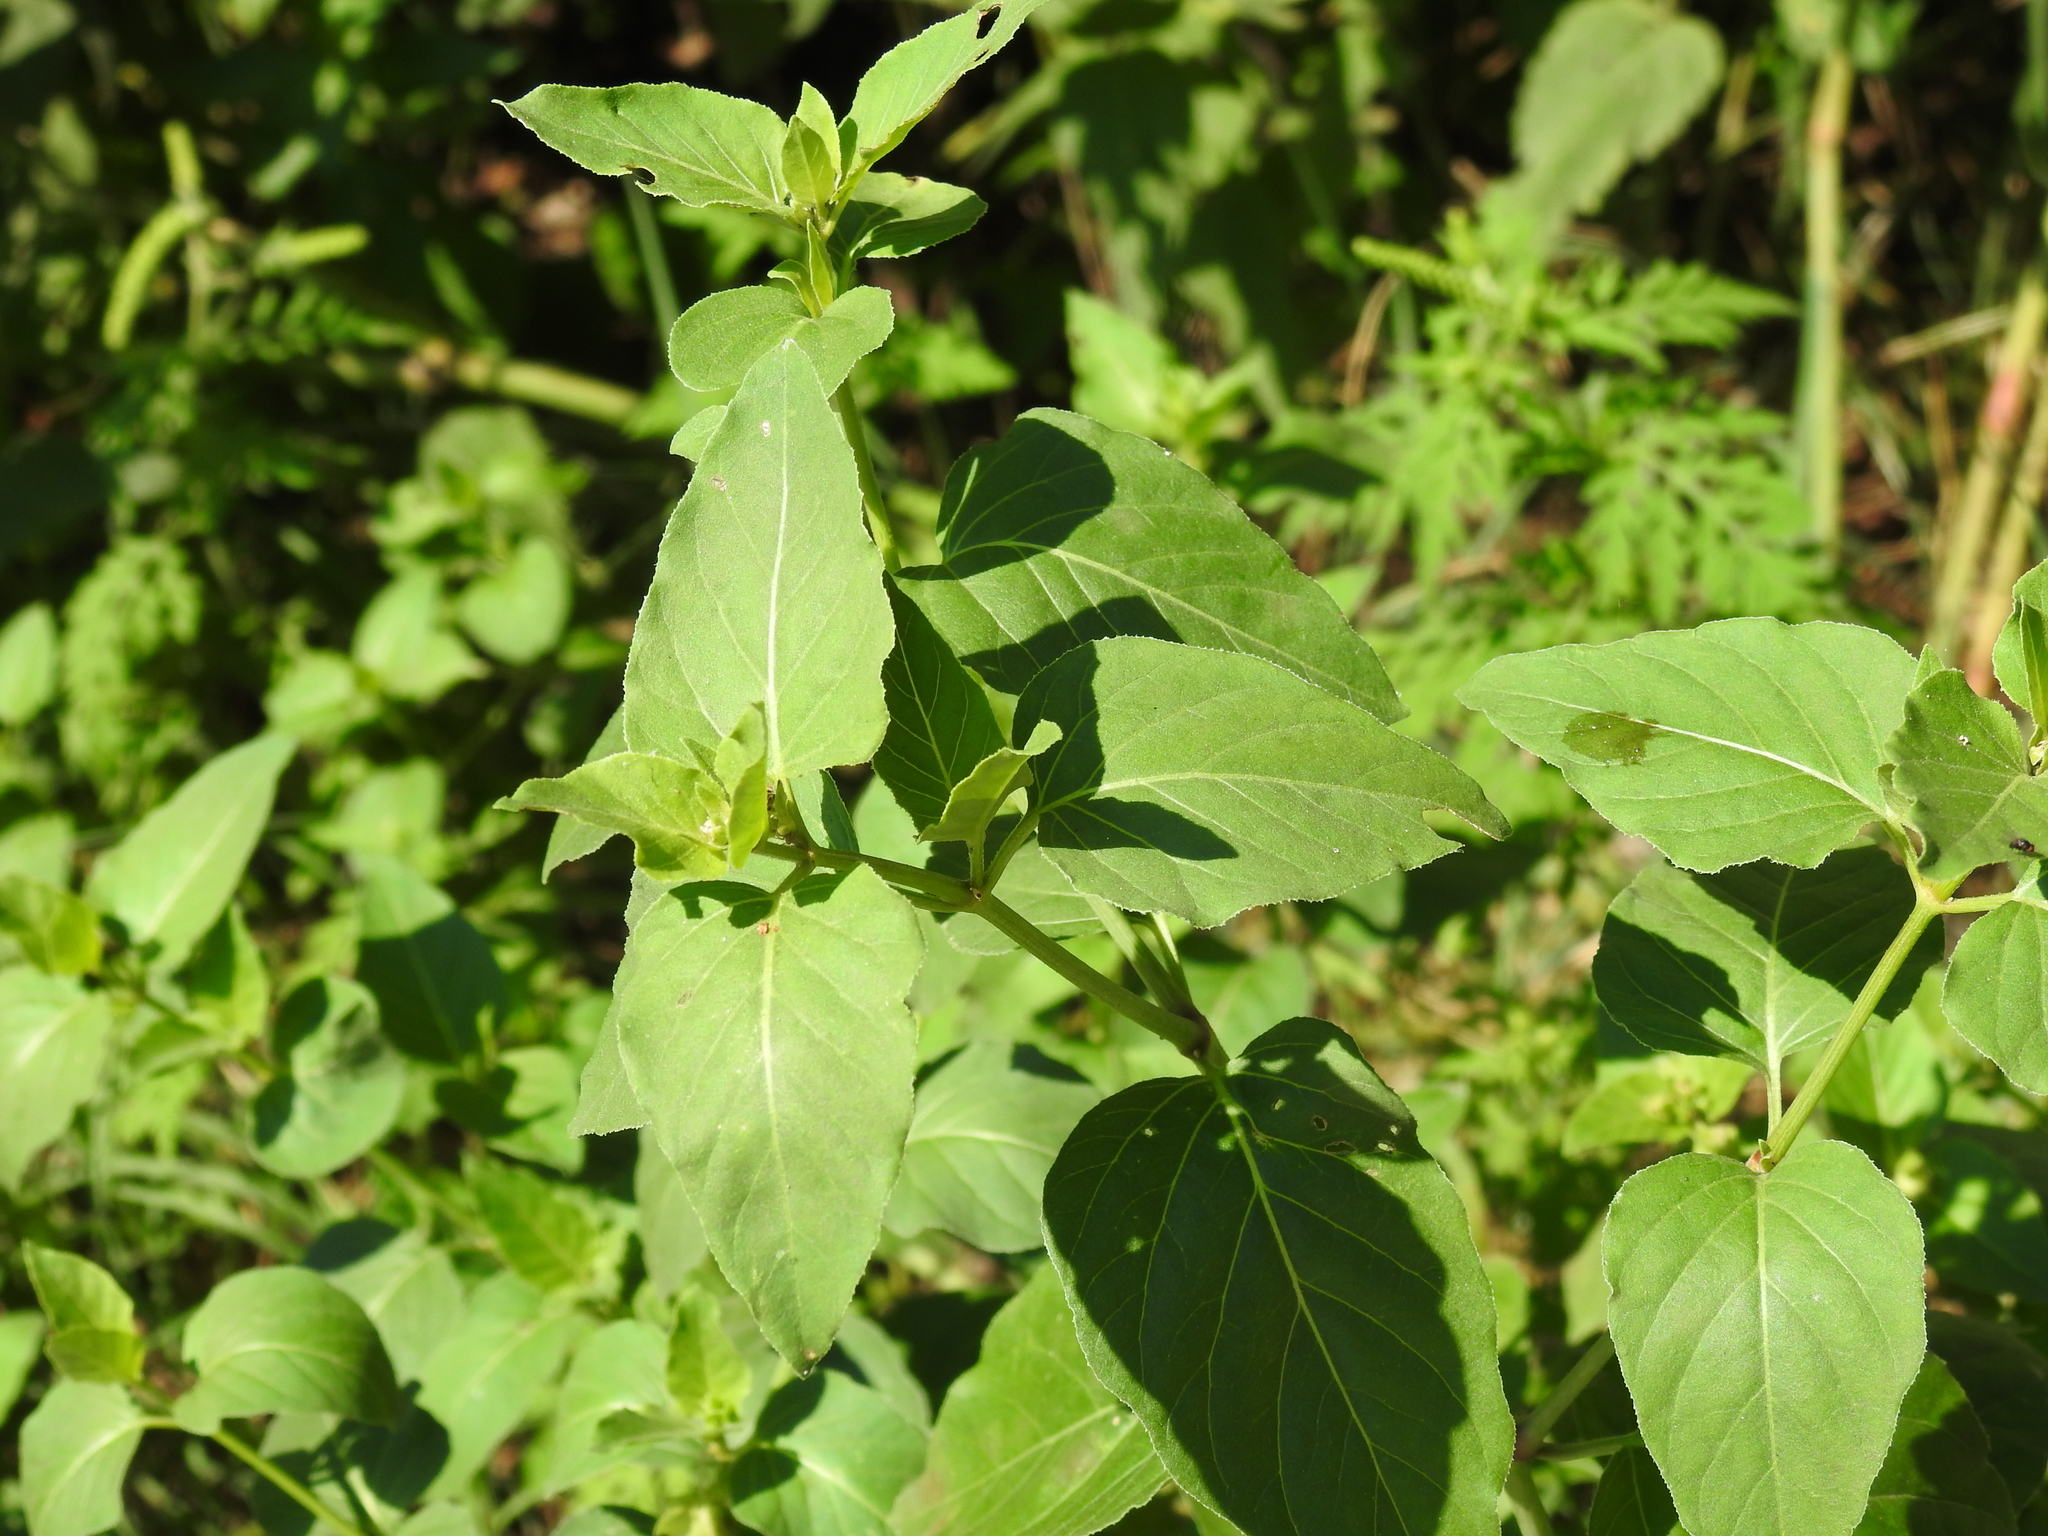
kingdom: Plantae
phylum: Tracheophyta
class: Magnoliopsida
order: Caryophyllales
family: Nyctaginaceae
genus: Mirabilis
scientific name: Mirabilis nyctaginea
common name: Umbrella wort
